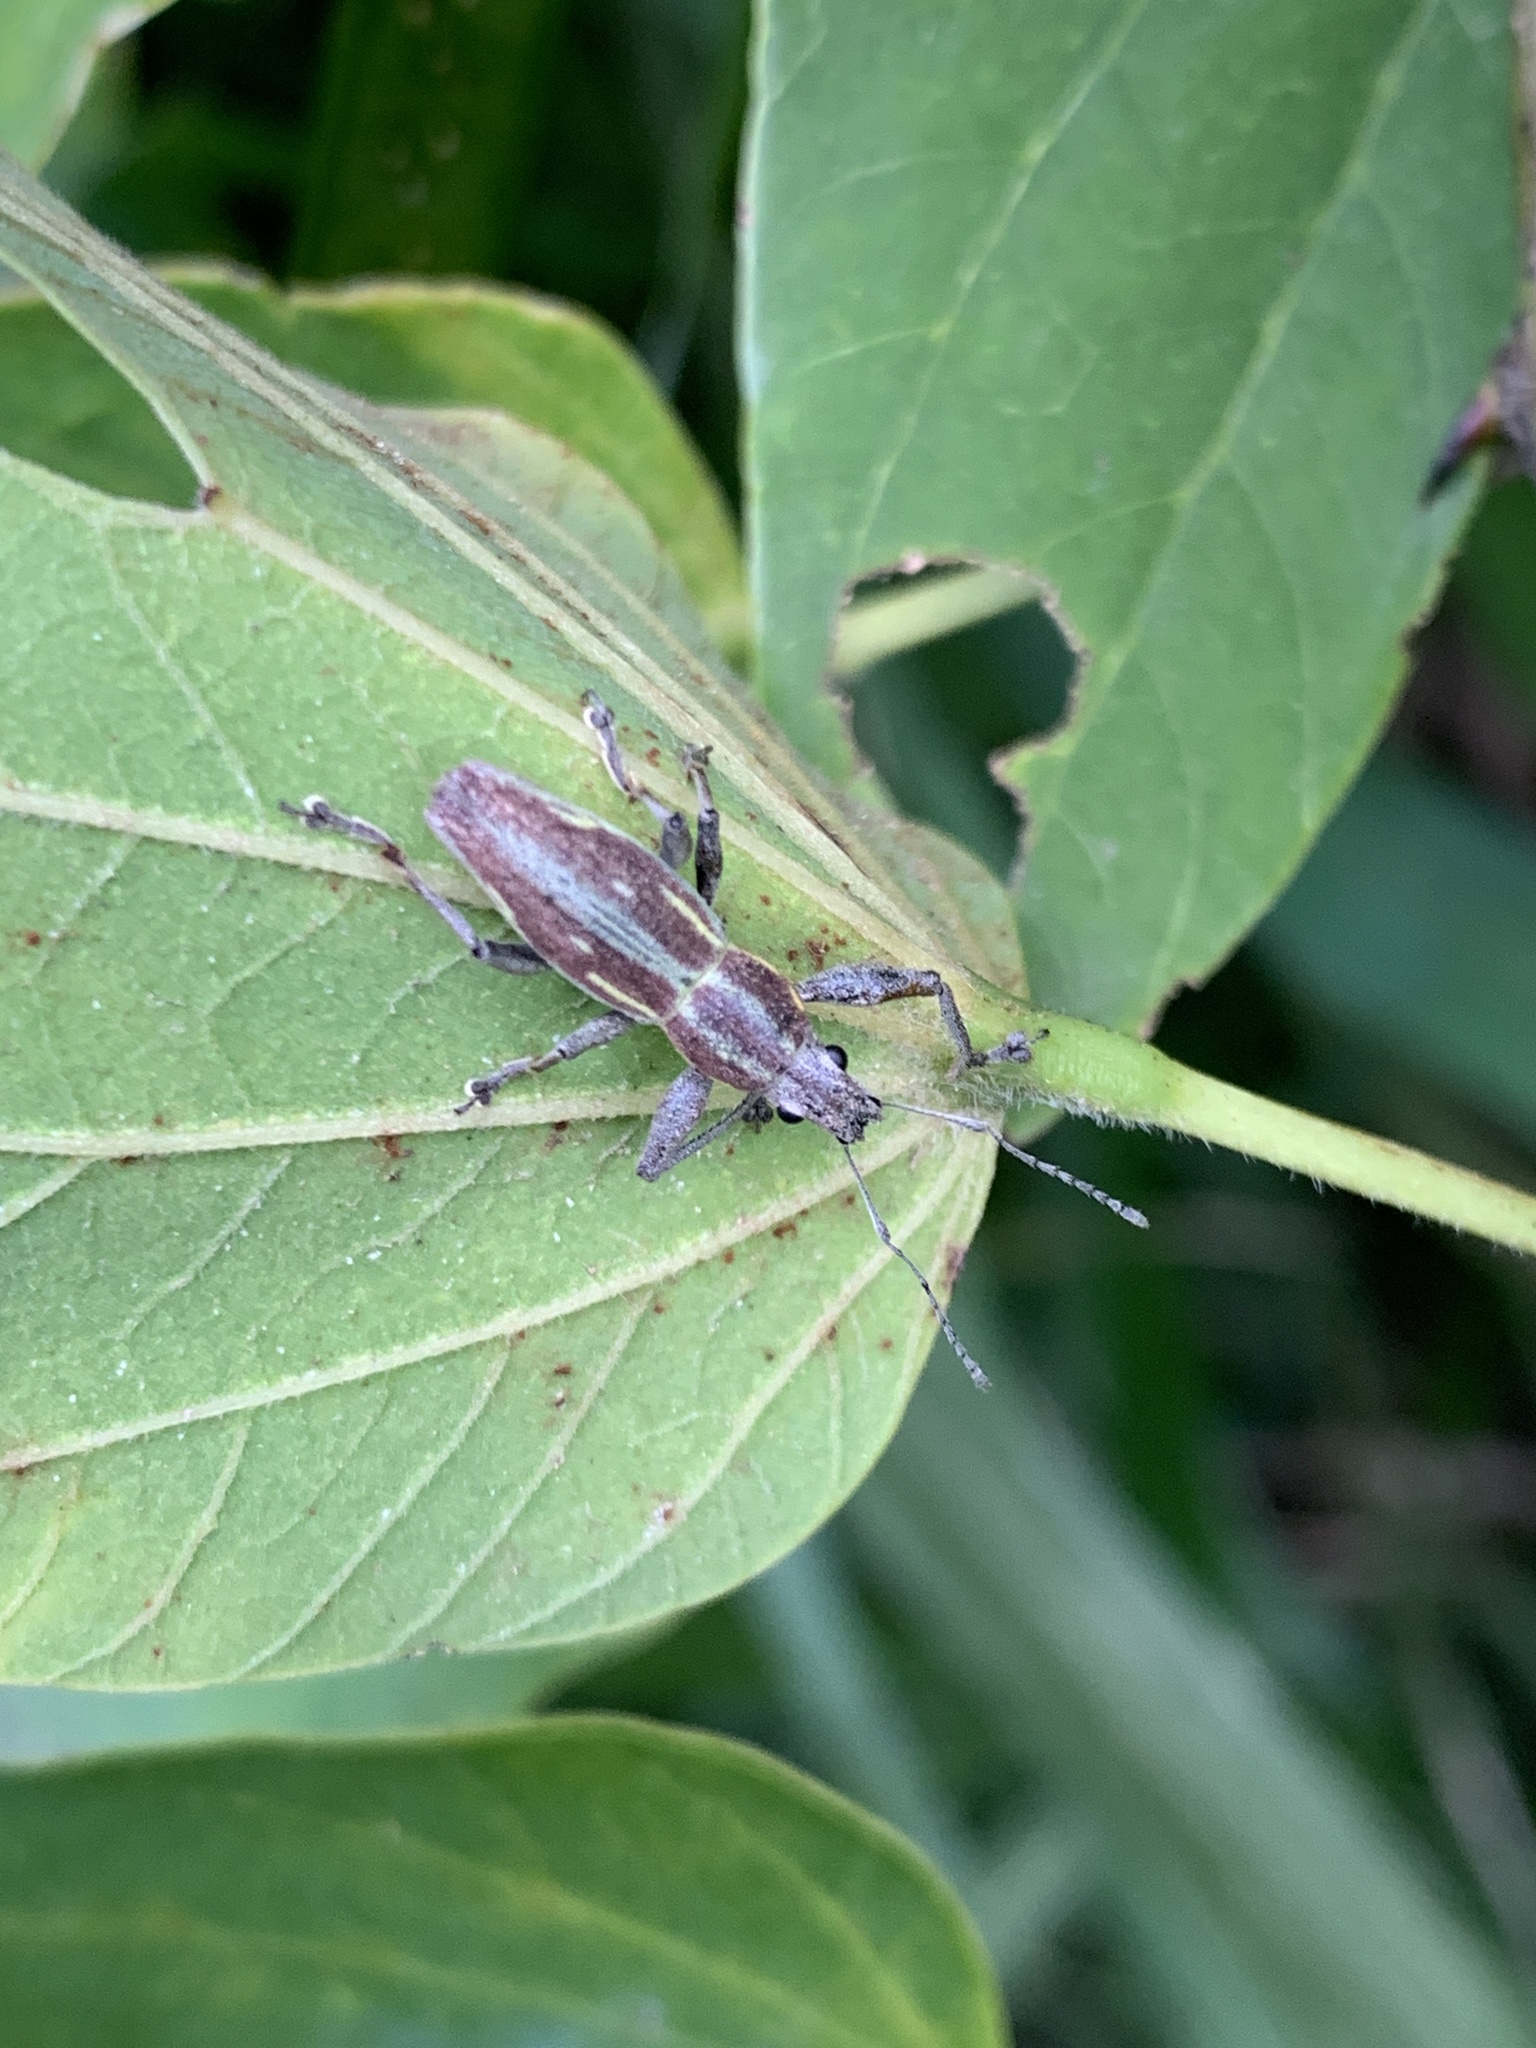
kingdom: Animalia
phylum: Arthropoda
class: Insecta
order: Coleoptera
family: Curculionidae
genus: Naupactus
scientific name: Naupactus xanthographus
